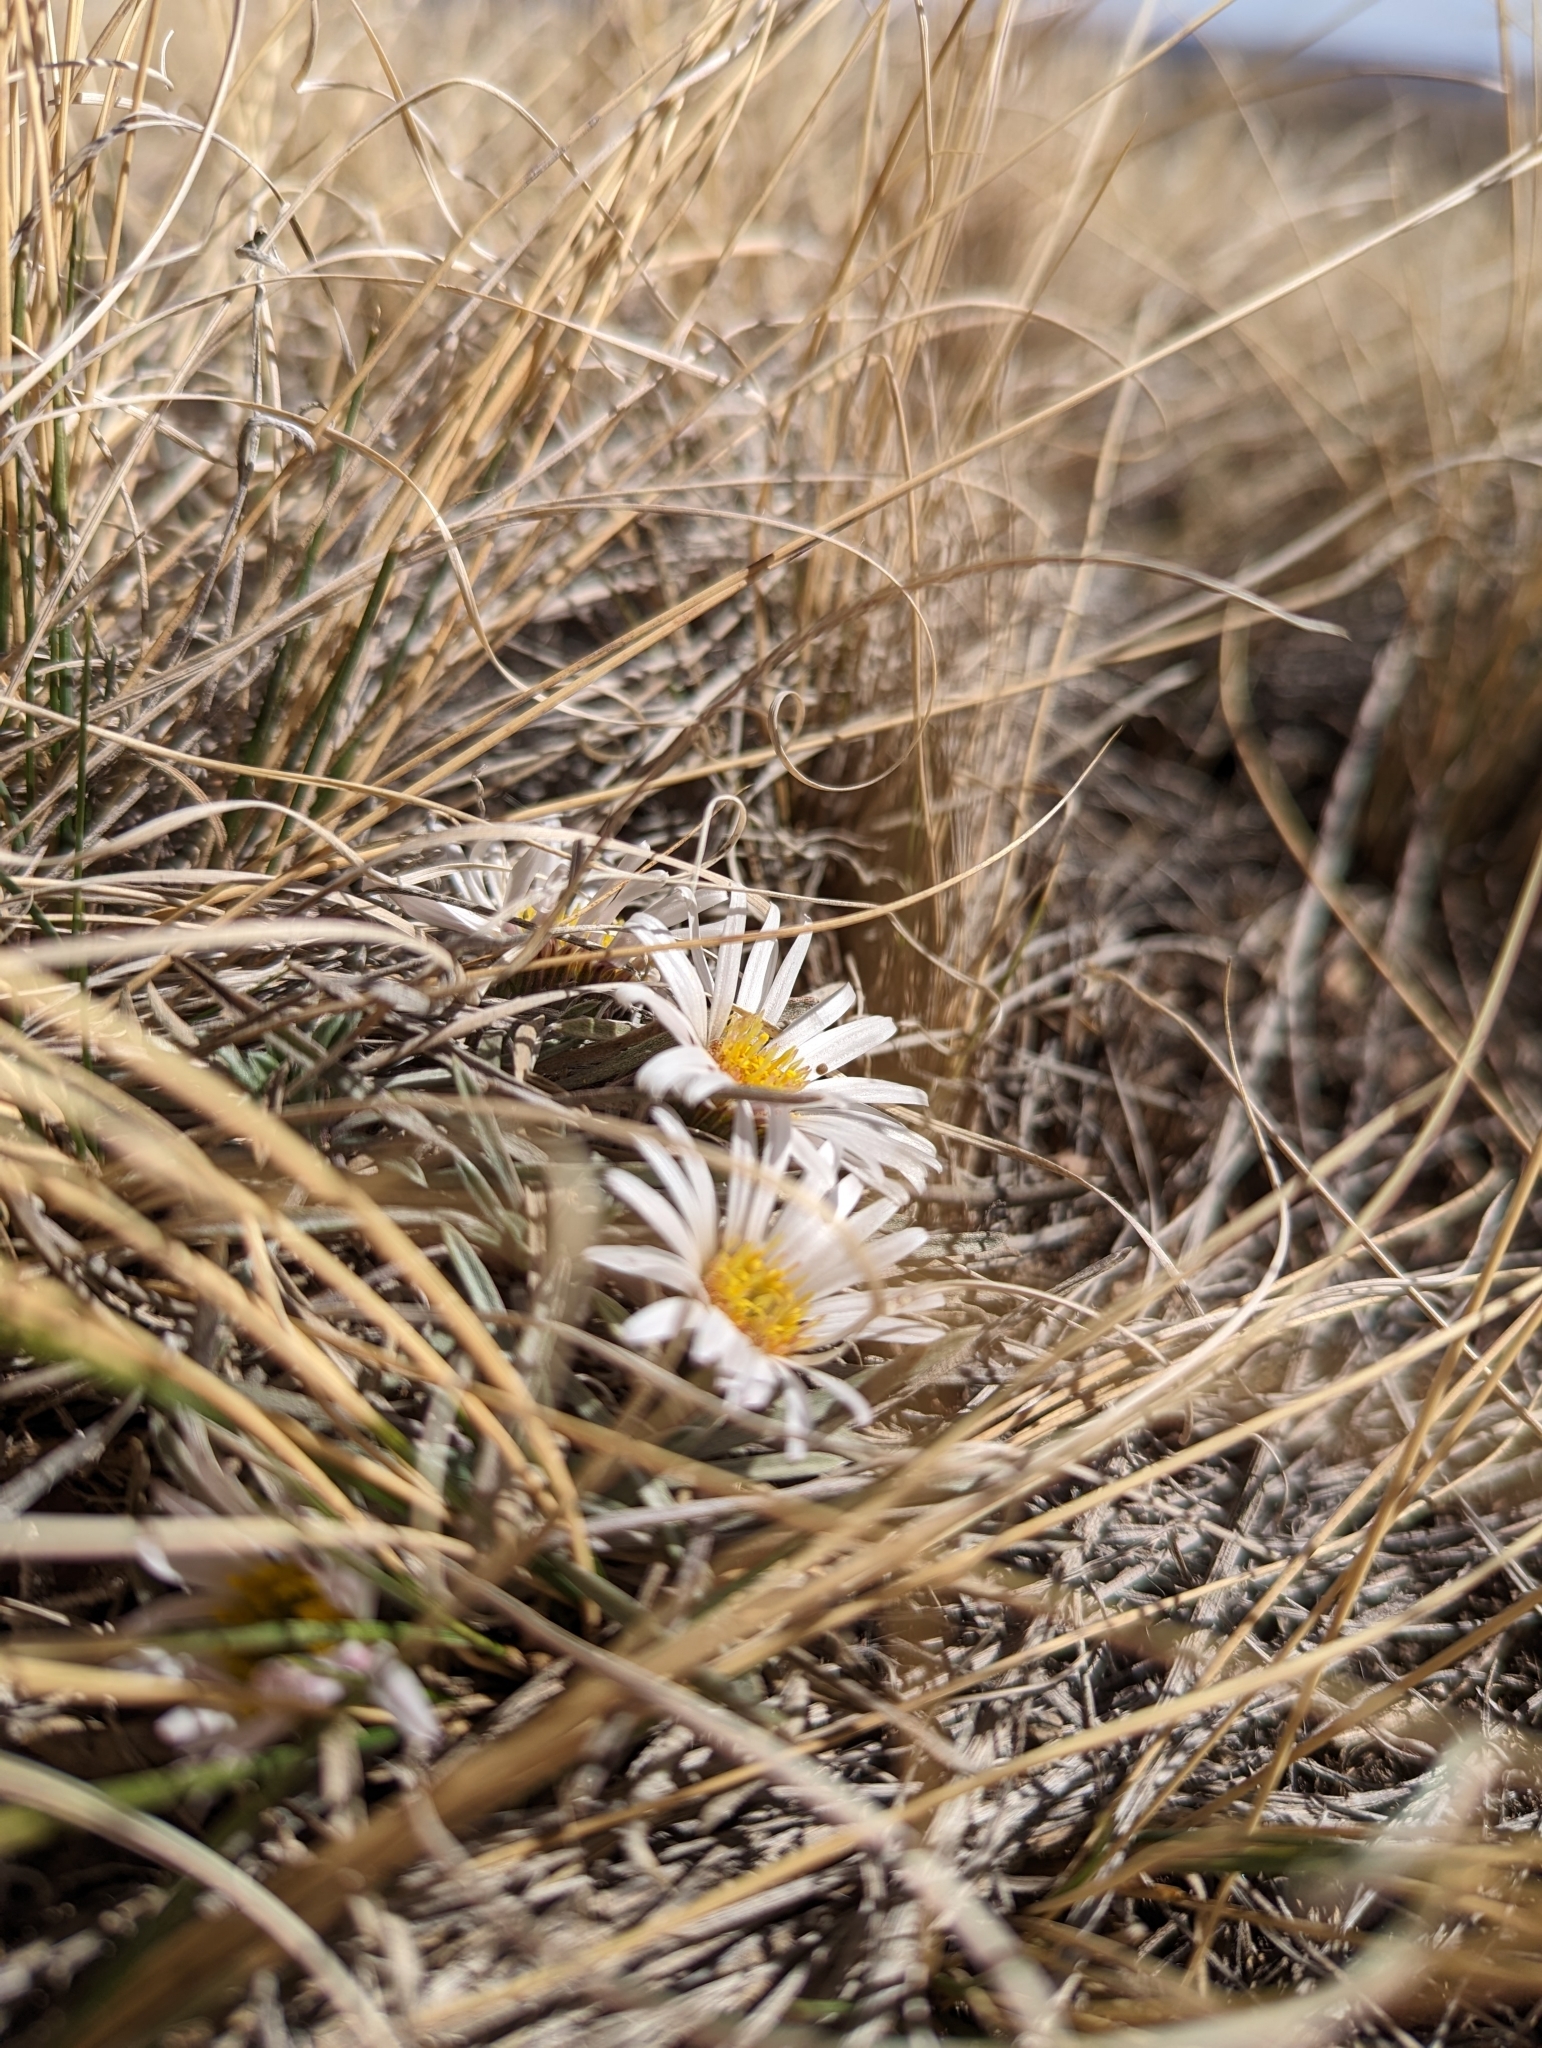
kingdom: Plantae
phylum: Tracheophyta
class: Magnoliopsida
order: Asterales
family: Asteraceae
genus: Townsendia
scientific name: Townsendia hookeri
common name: Hooker's townsend daisy
